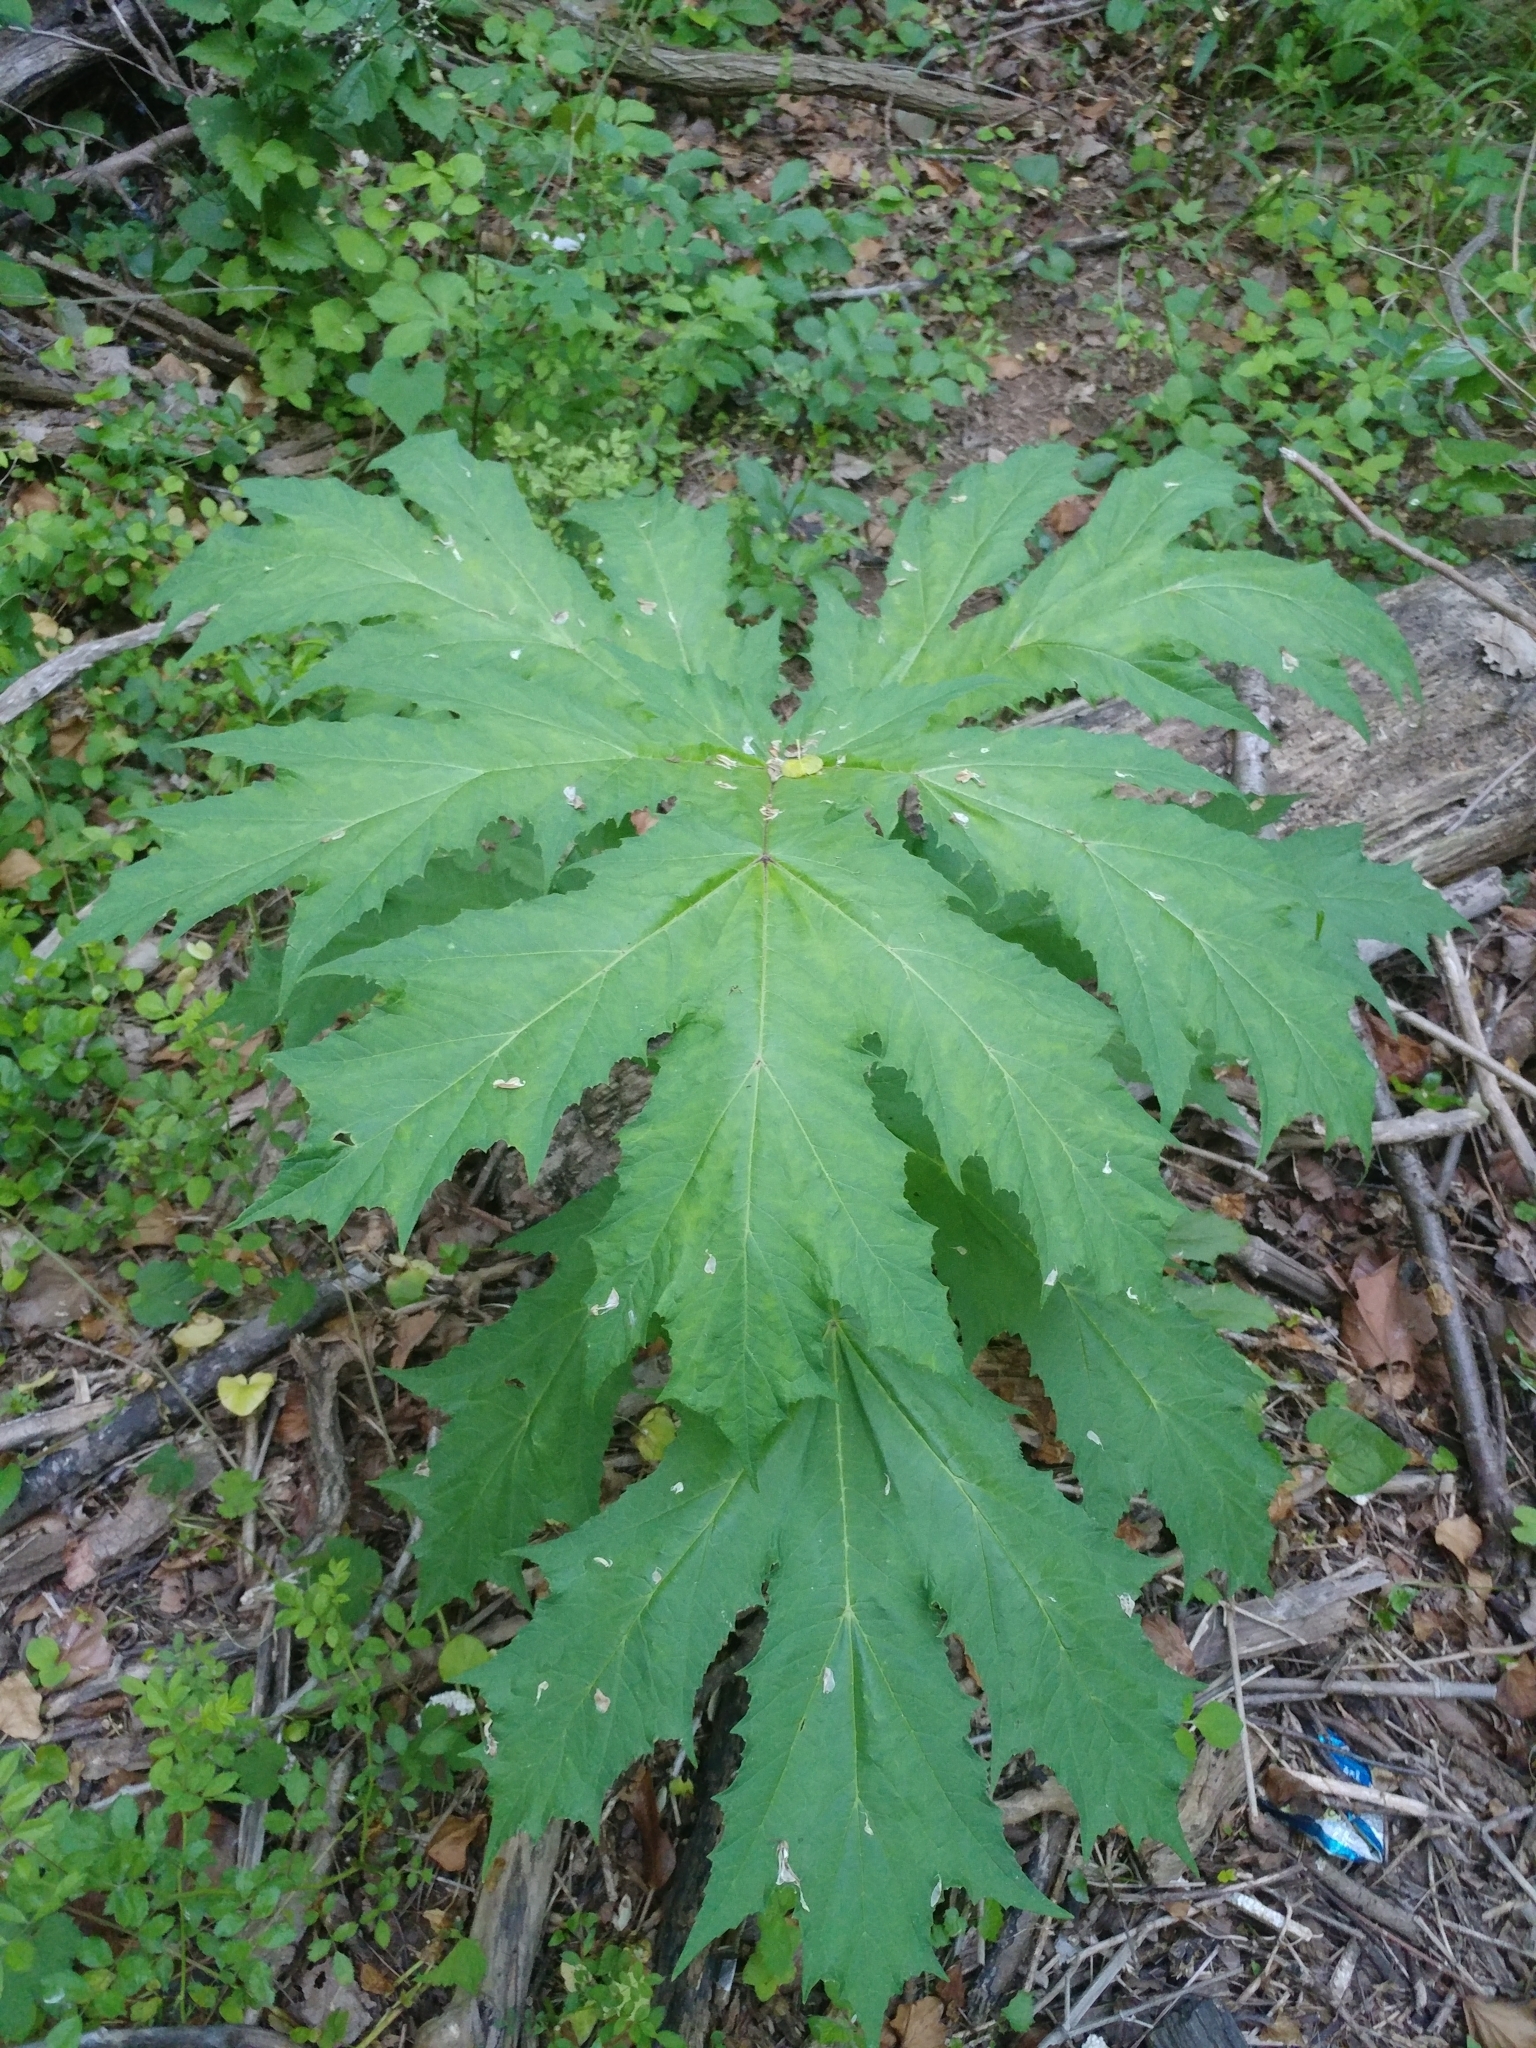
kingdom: Plantae
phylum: Tracheophyta
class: Magnoliopsida
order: Apiales
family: Apiaceae
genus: Heracleum
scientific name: Heracleum mantegazzianum
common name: Giant hogweed
